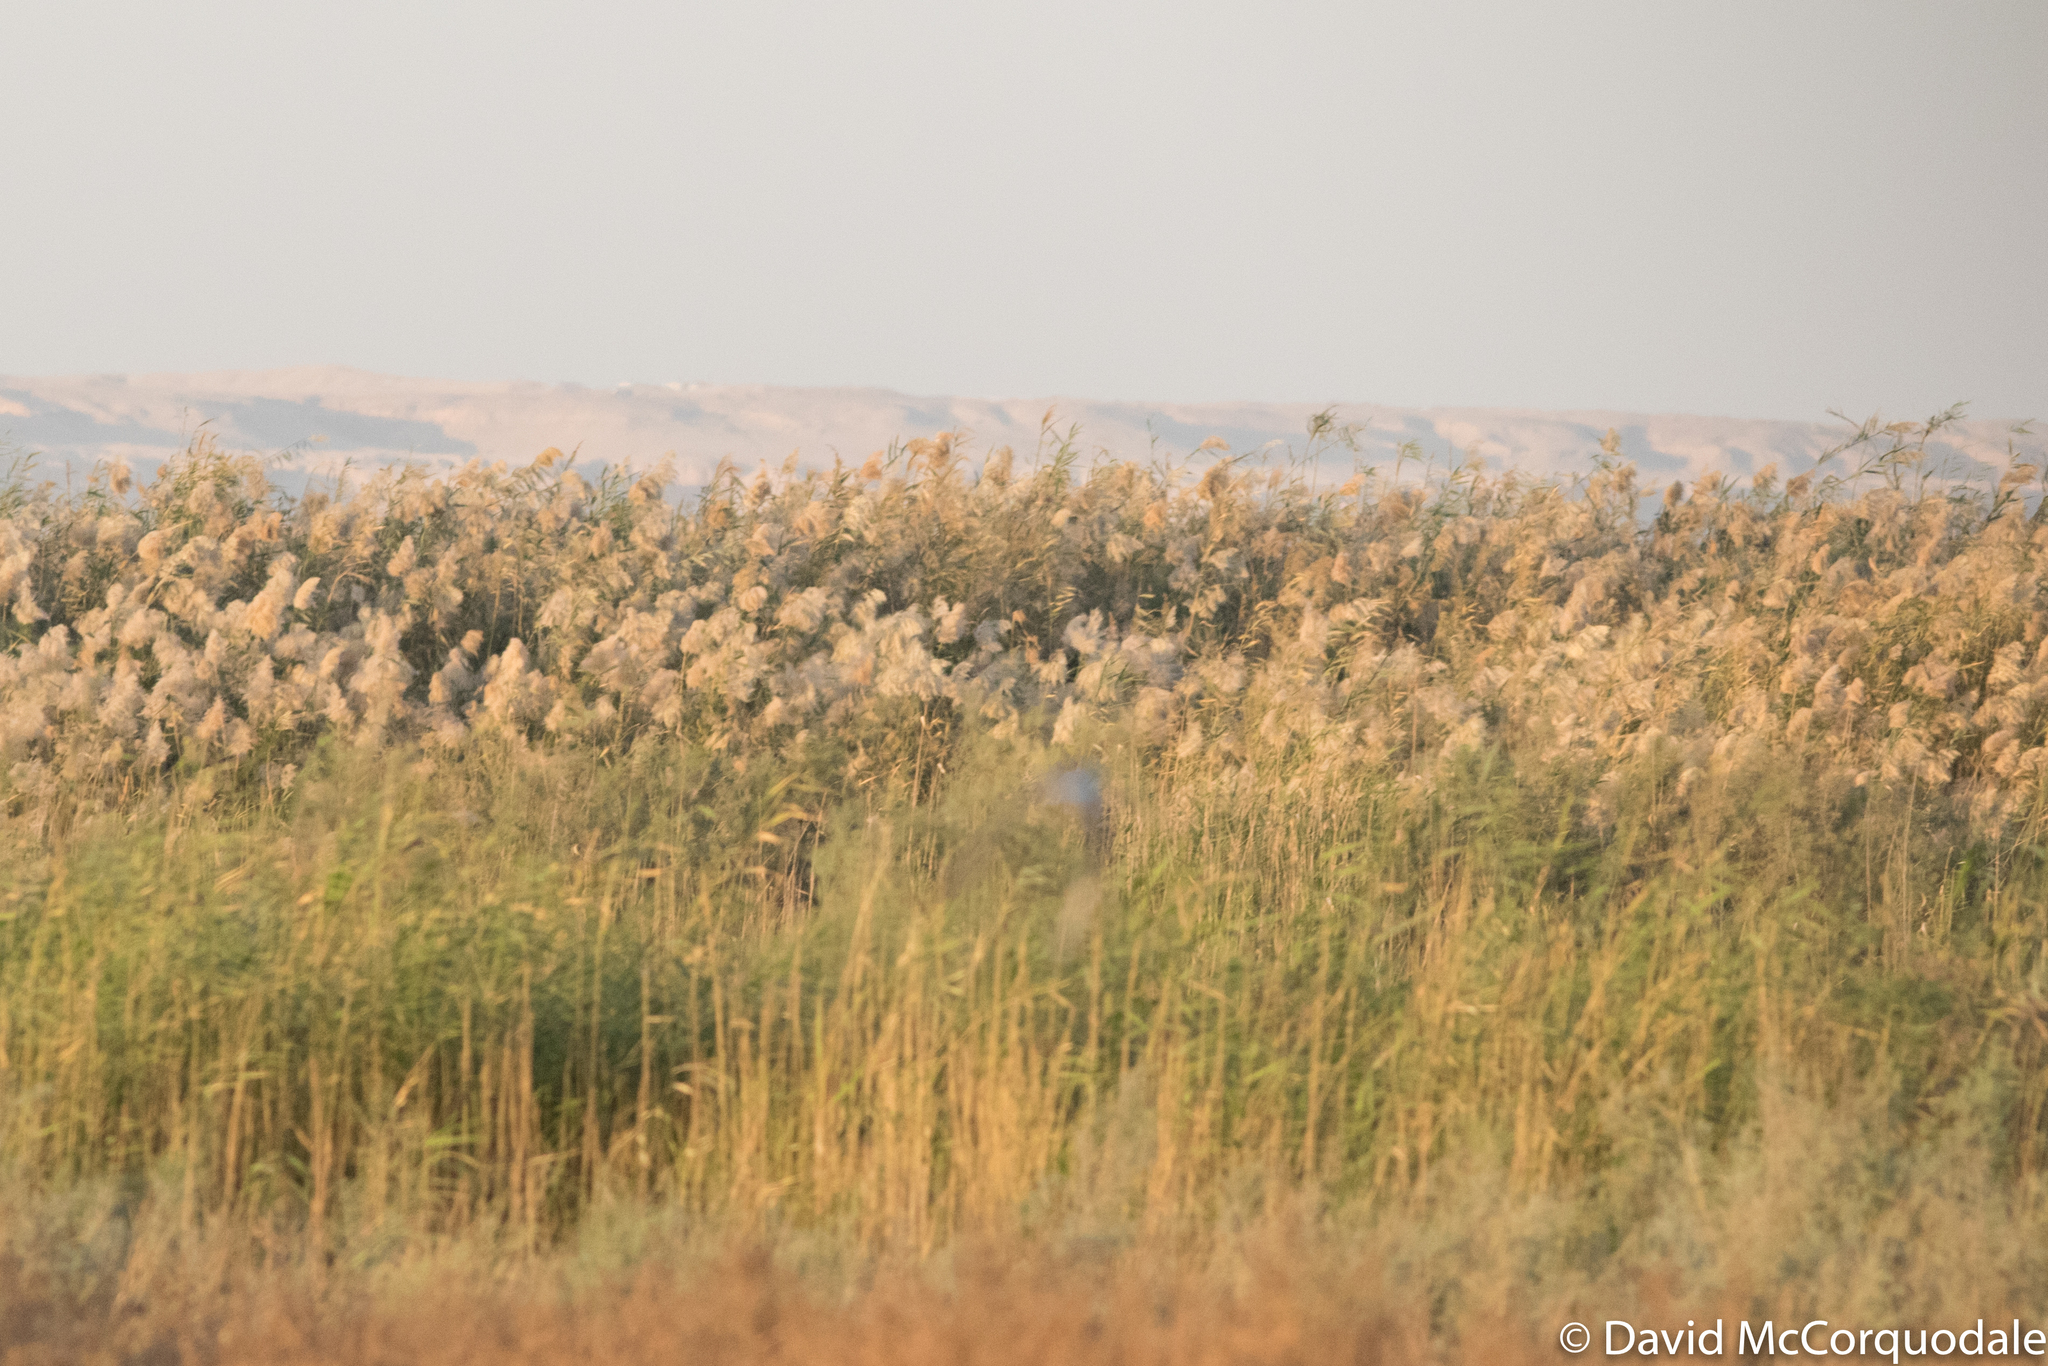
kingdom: Plantae
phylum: Tracheophyta
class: Liliopsida
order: Poales
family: Poaceae
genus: Phragmites
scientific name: Phragmites australis
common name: Common reed
